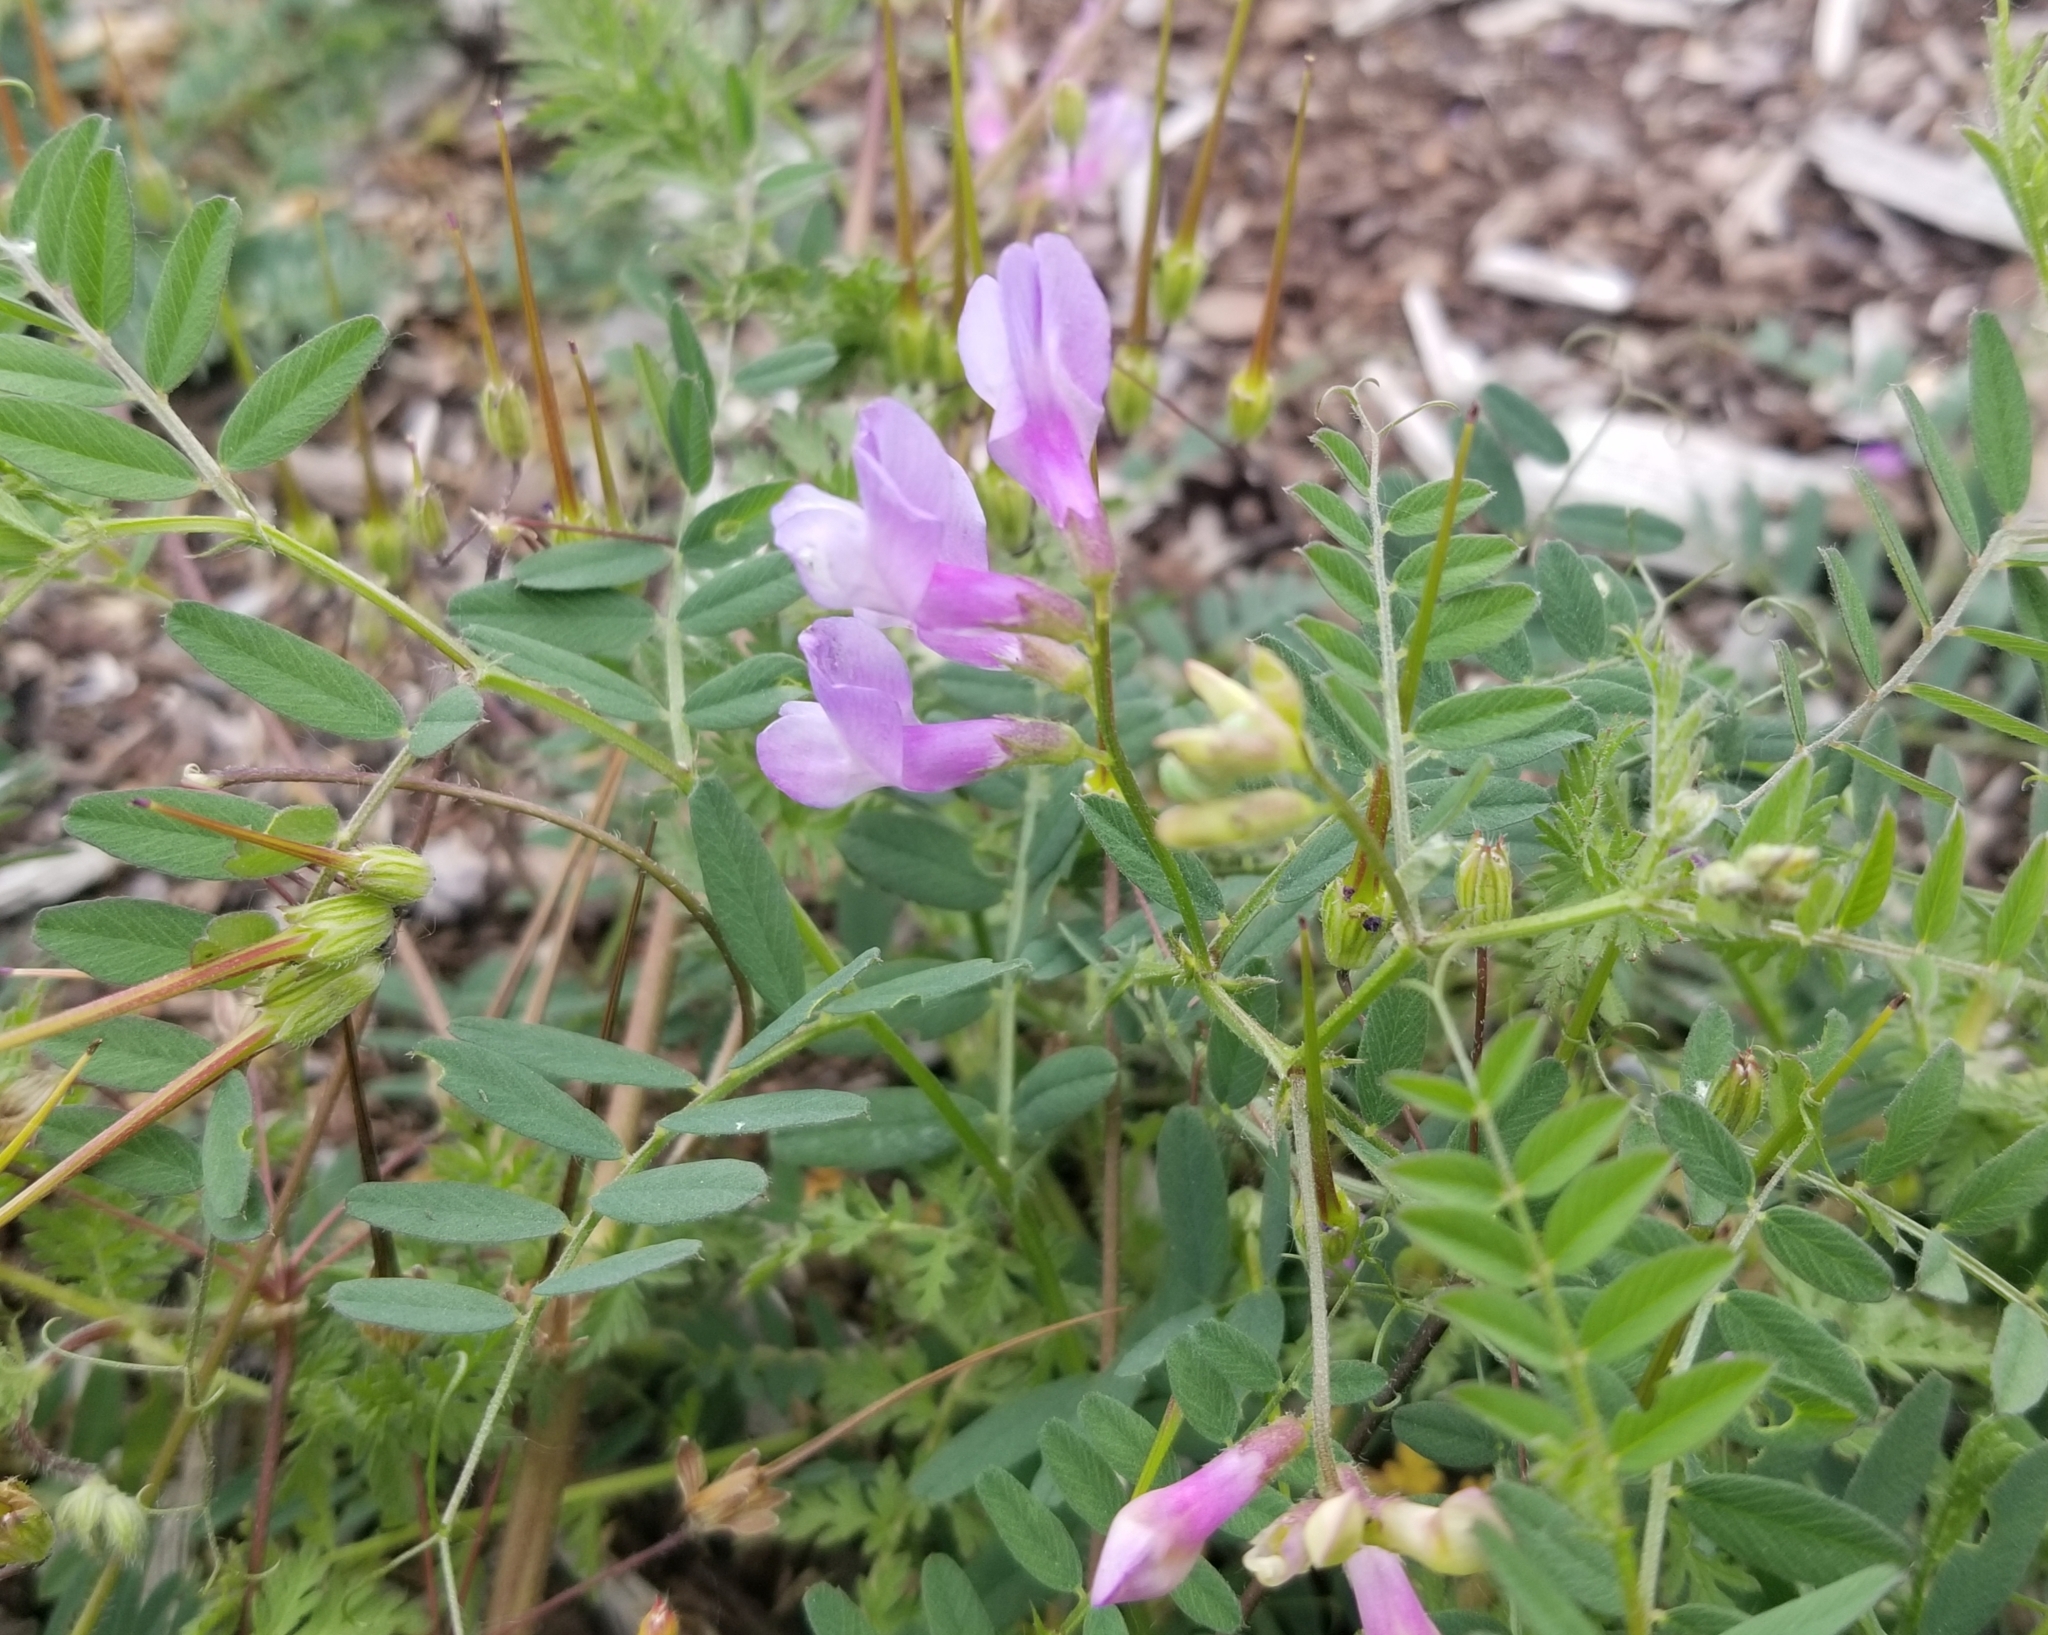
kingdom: Plantae
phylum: Tracheophyta
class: Magnoliopsida
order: Fabales
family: Fabaceae
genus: Vicia
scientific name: Vicia americana
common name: American vetch
